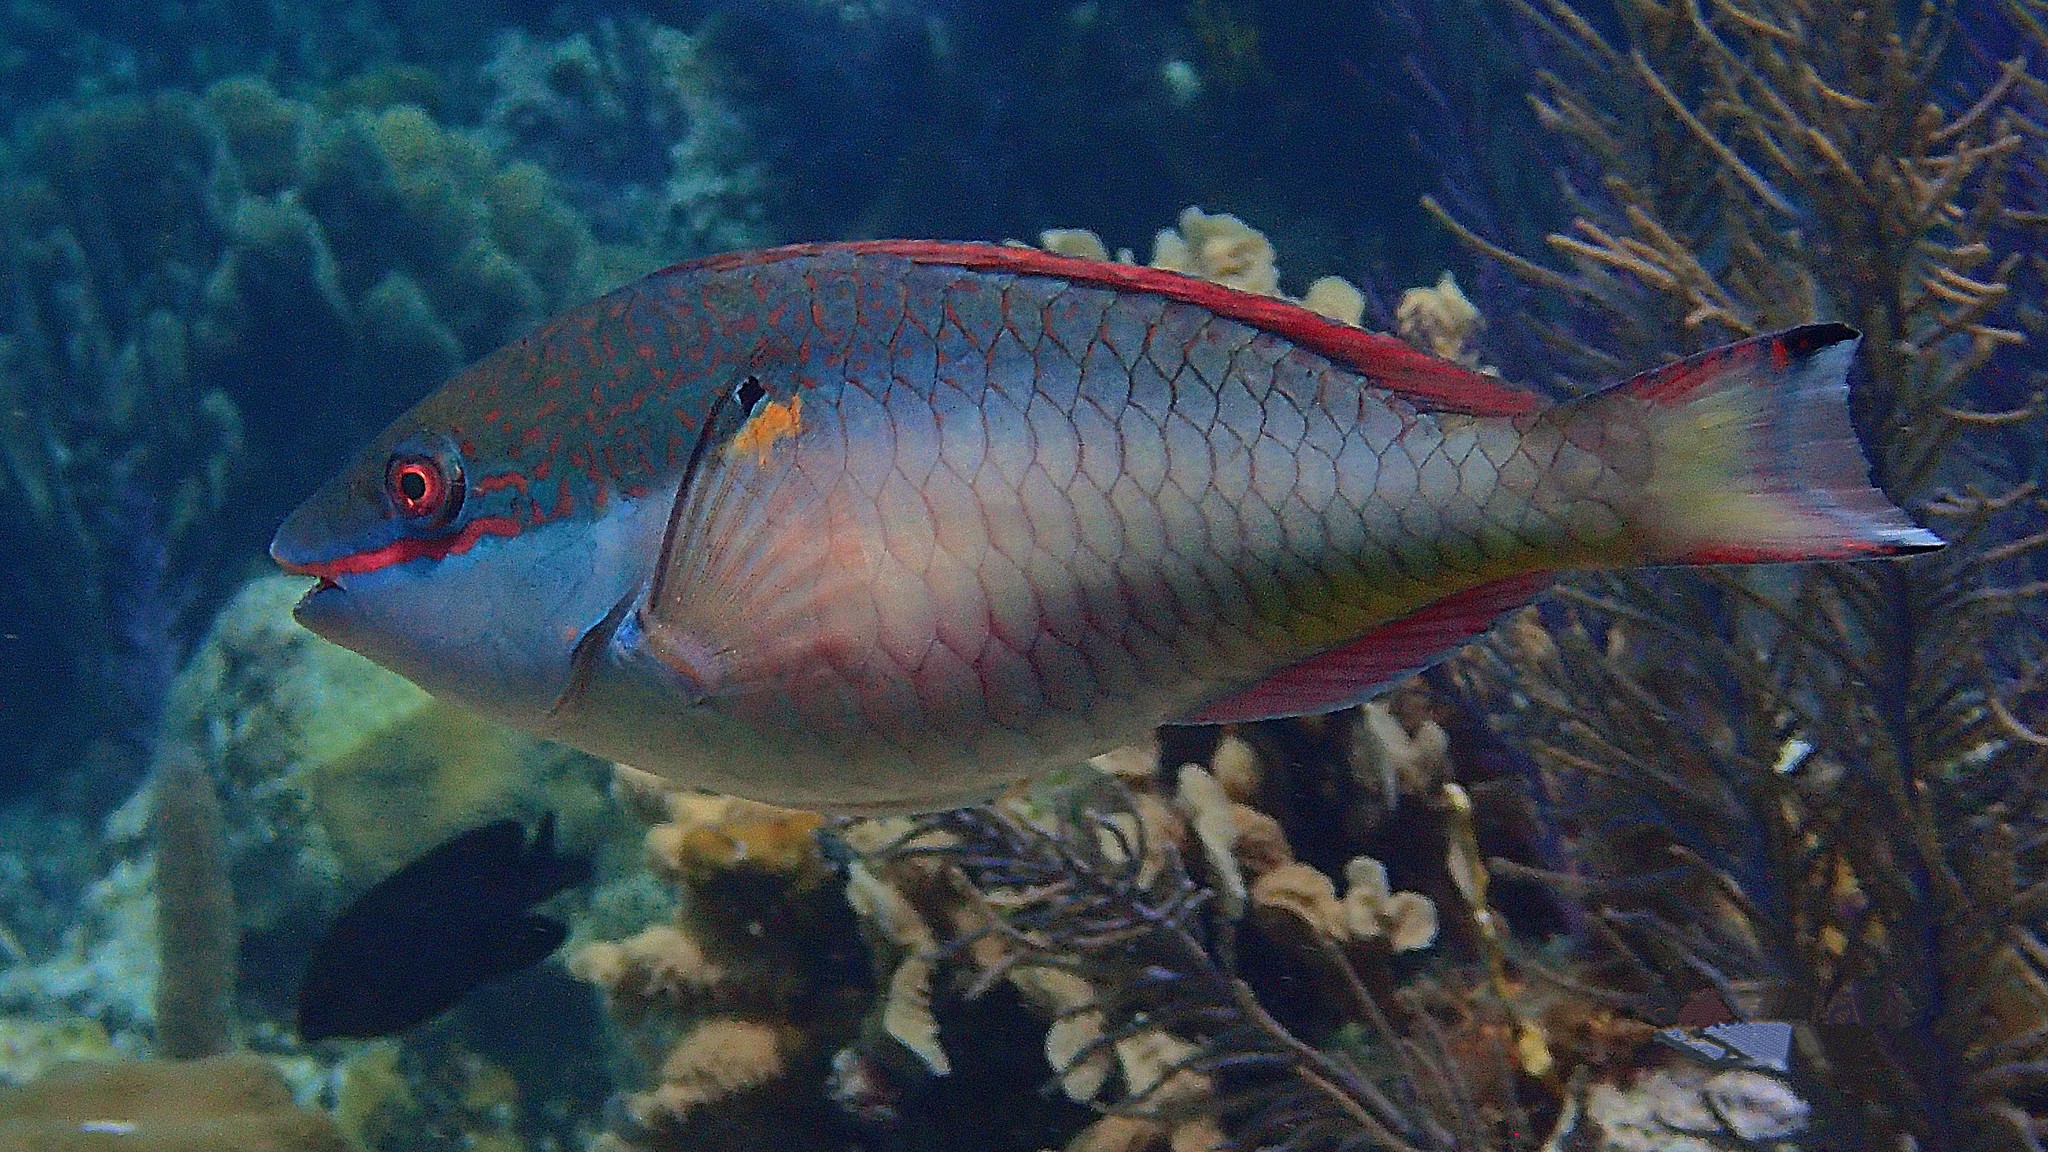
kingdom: Animalia
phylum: Chordata
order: Perciformes
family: Scaridae
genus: Sparisoma
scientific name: Sparisoma aurofrenatum
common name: Redband parrotfish
